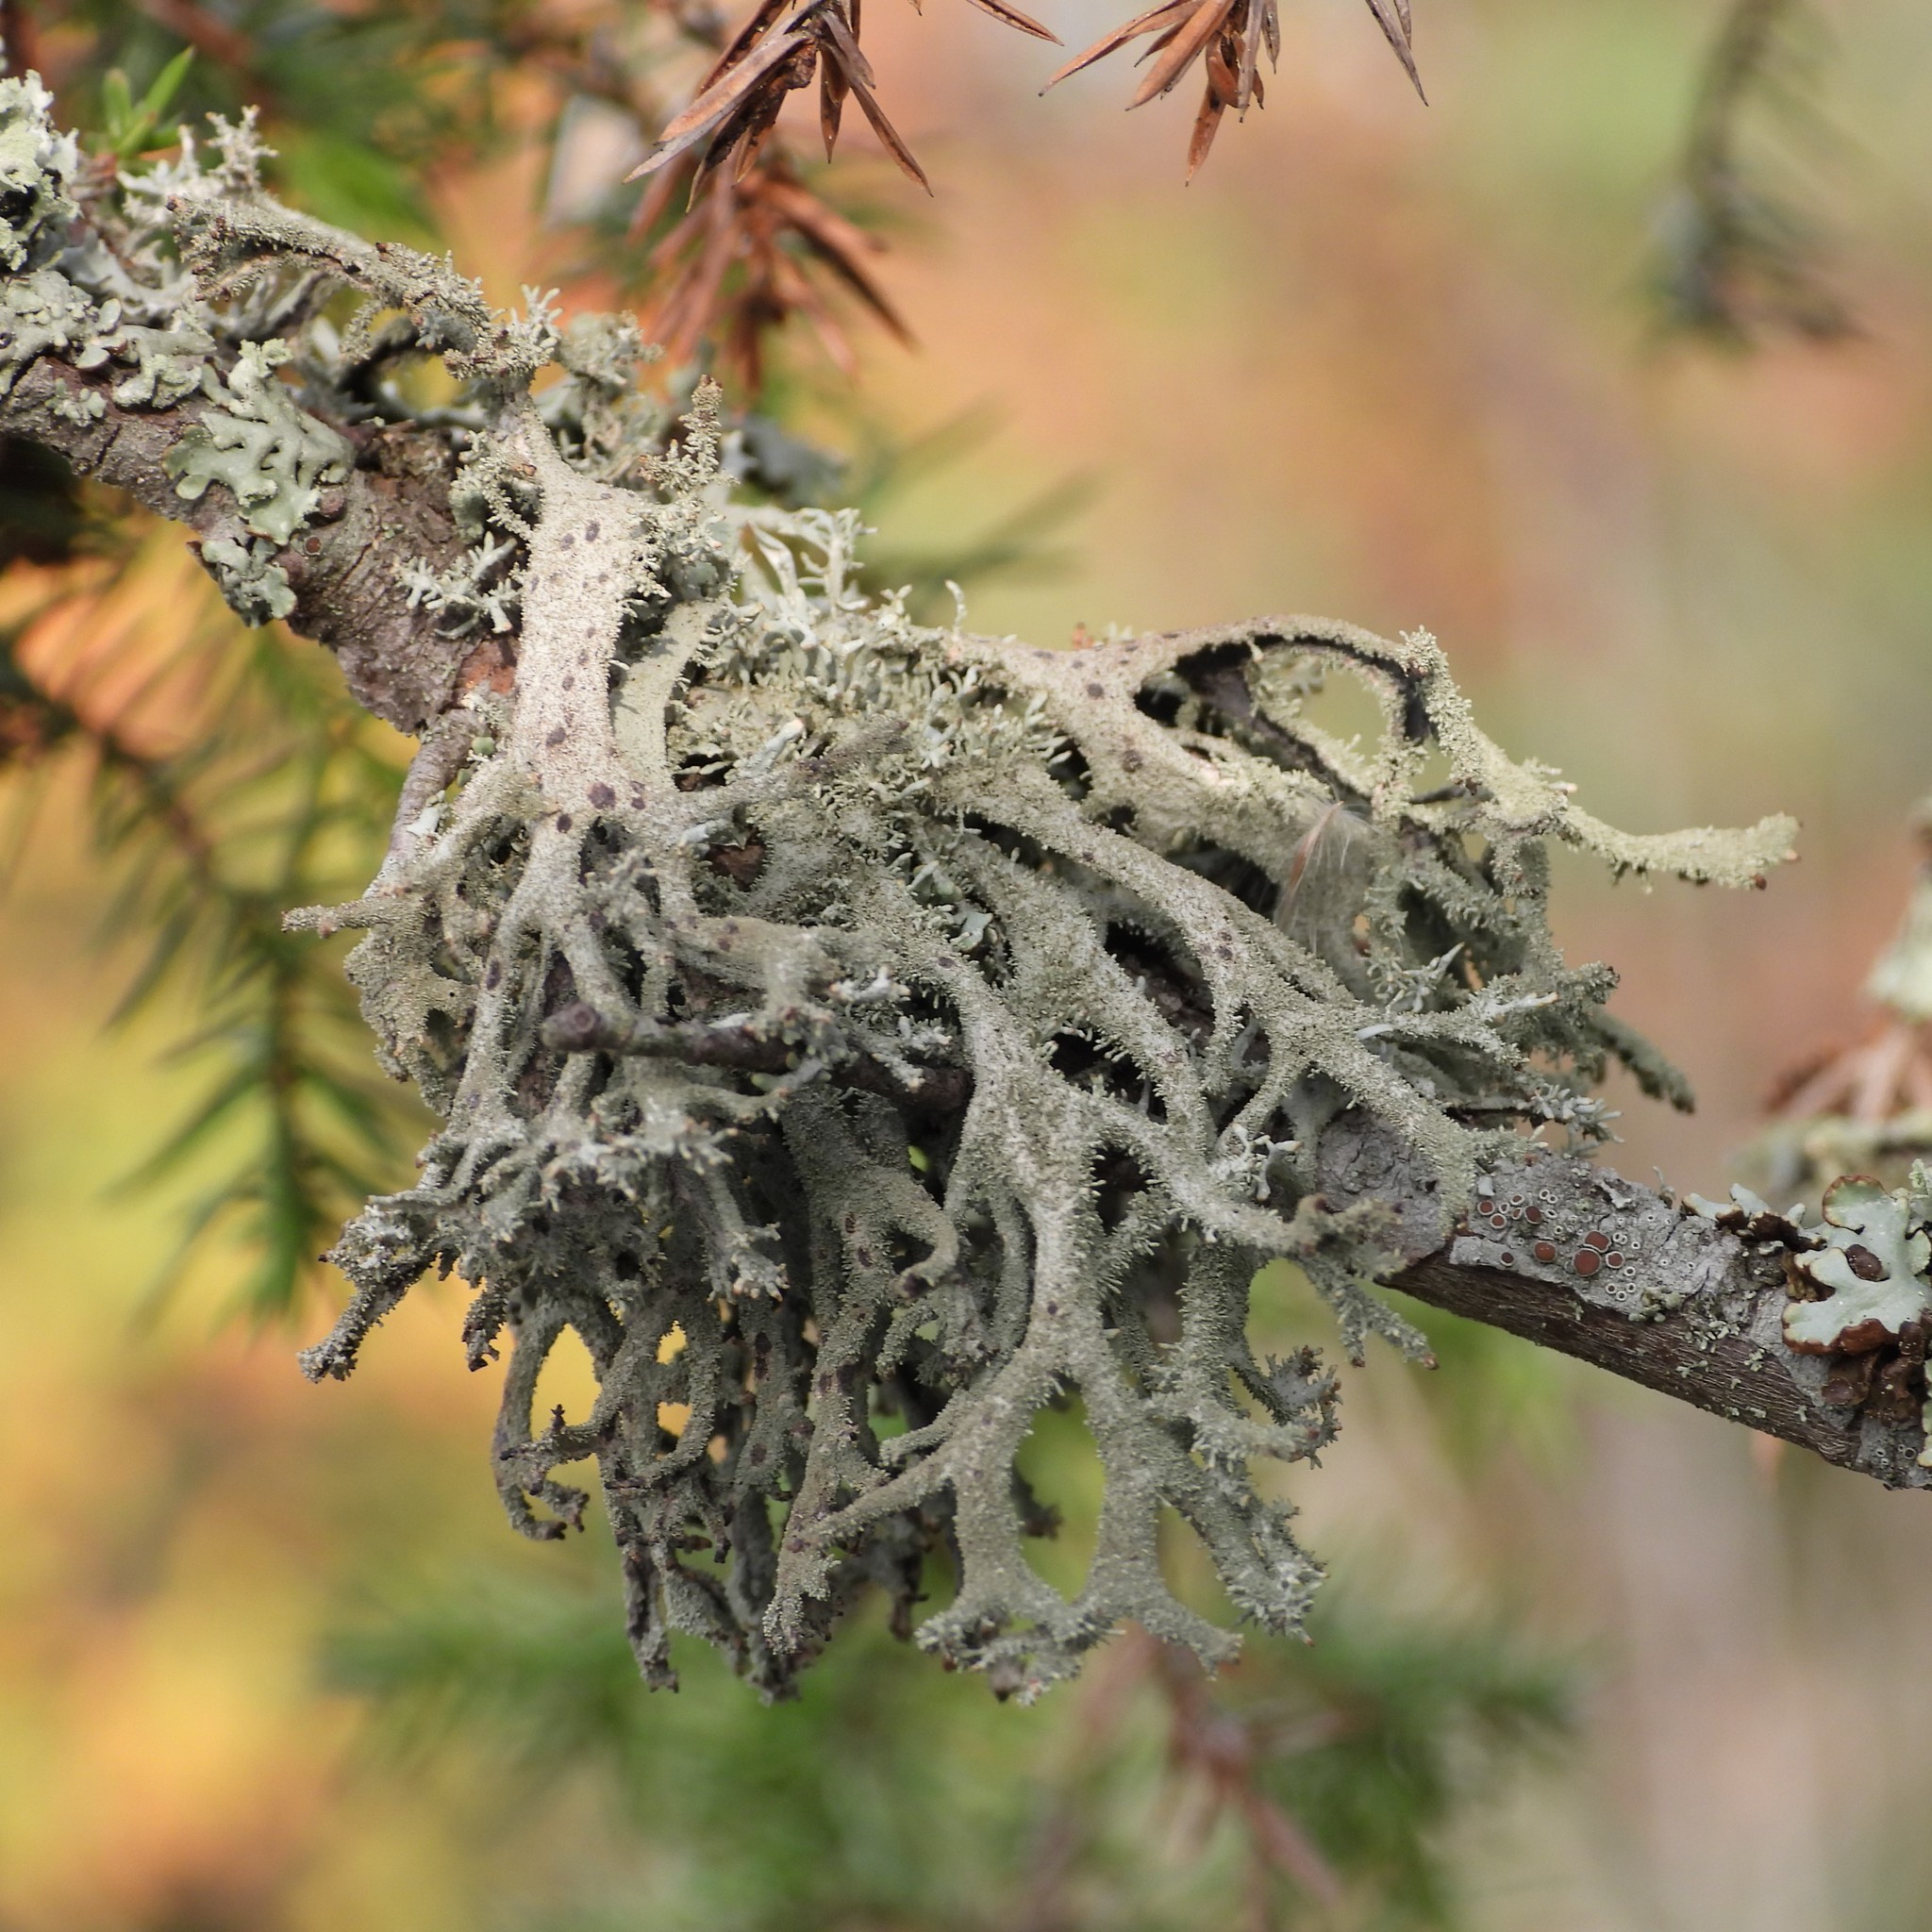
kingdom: Fungi
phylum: Ascomycota
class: Lecanoromycetes
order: Lecanorales
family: Parmeliaceae
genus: Pseudevernia
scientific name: Pseudevernia furfuracea
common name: Tree moss
